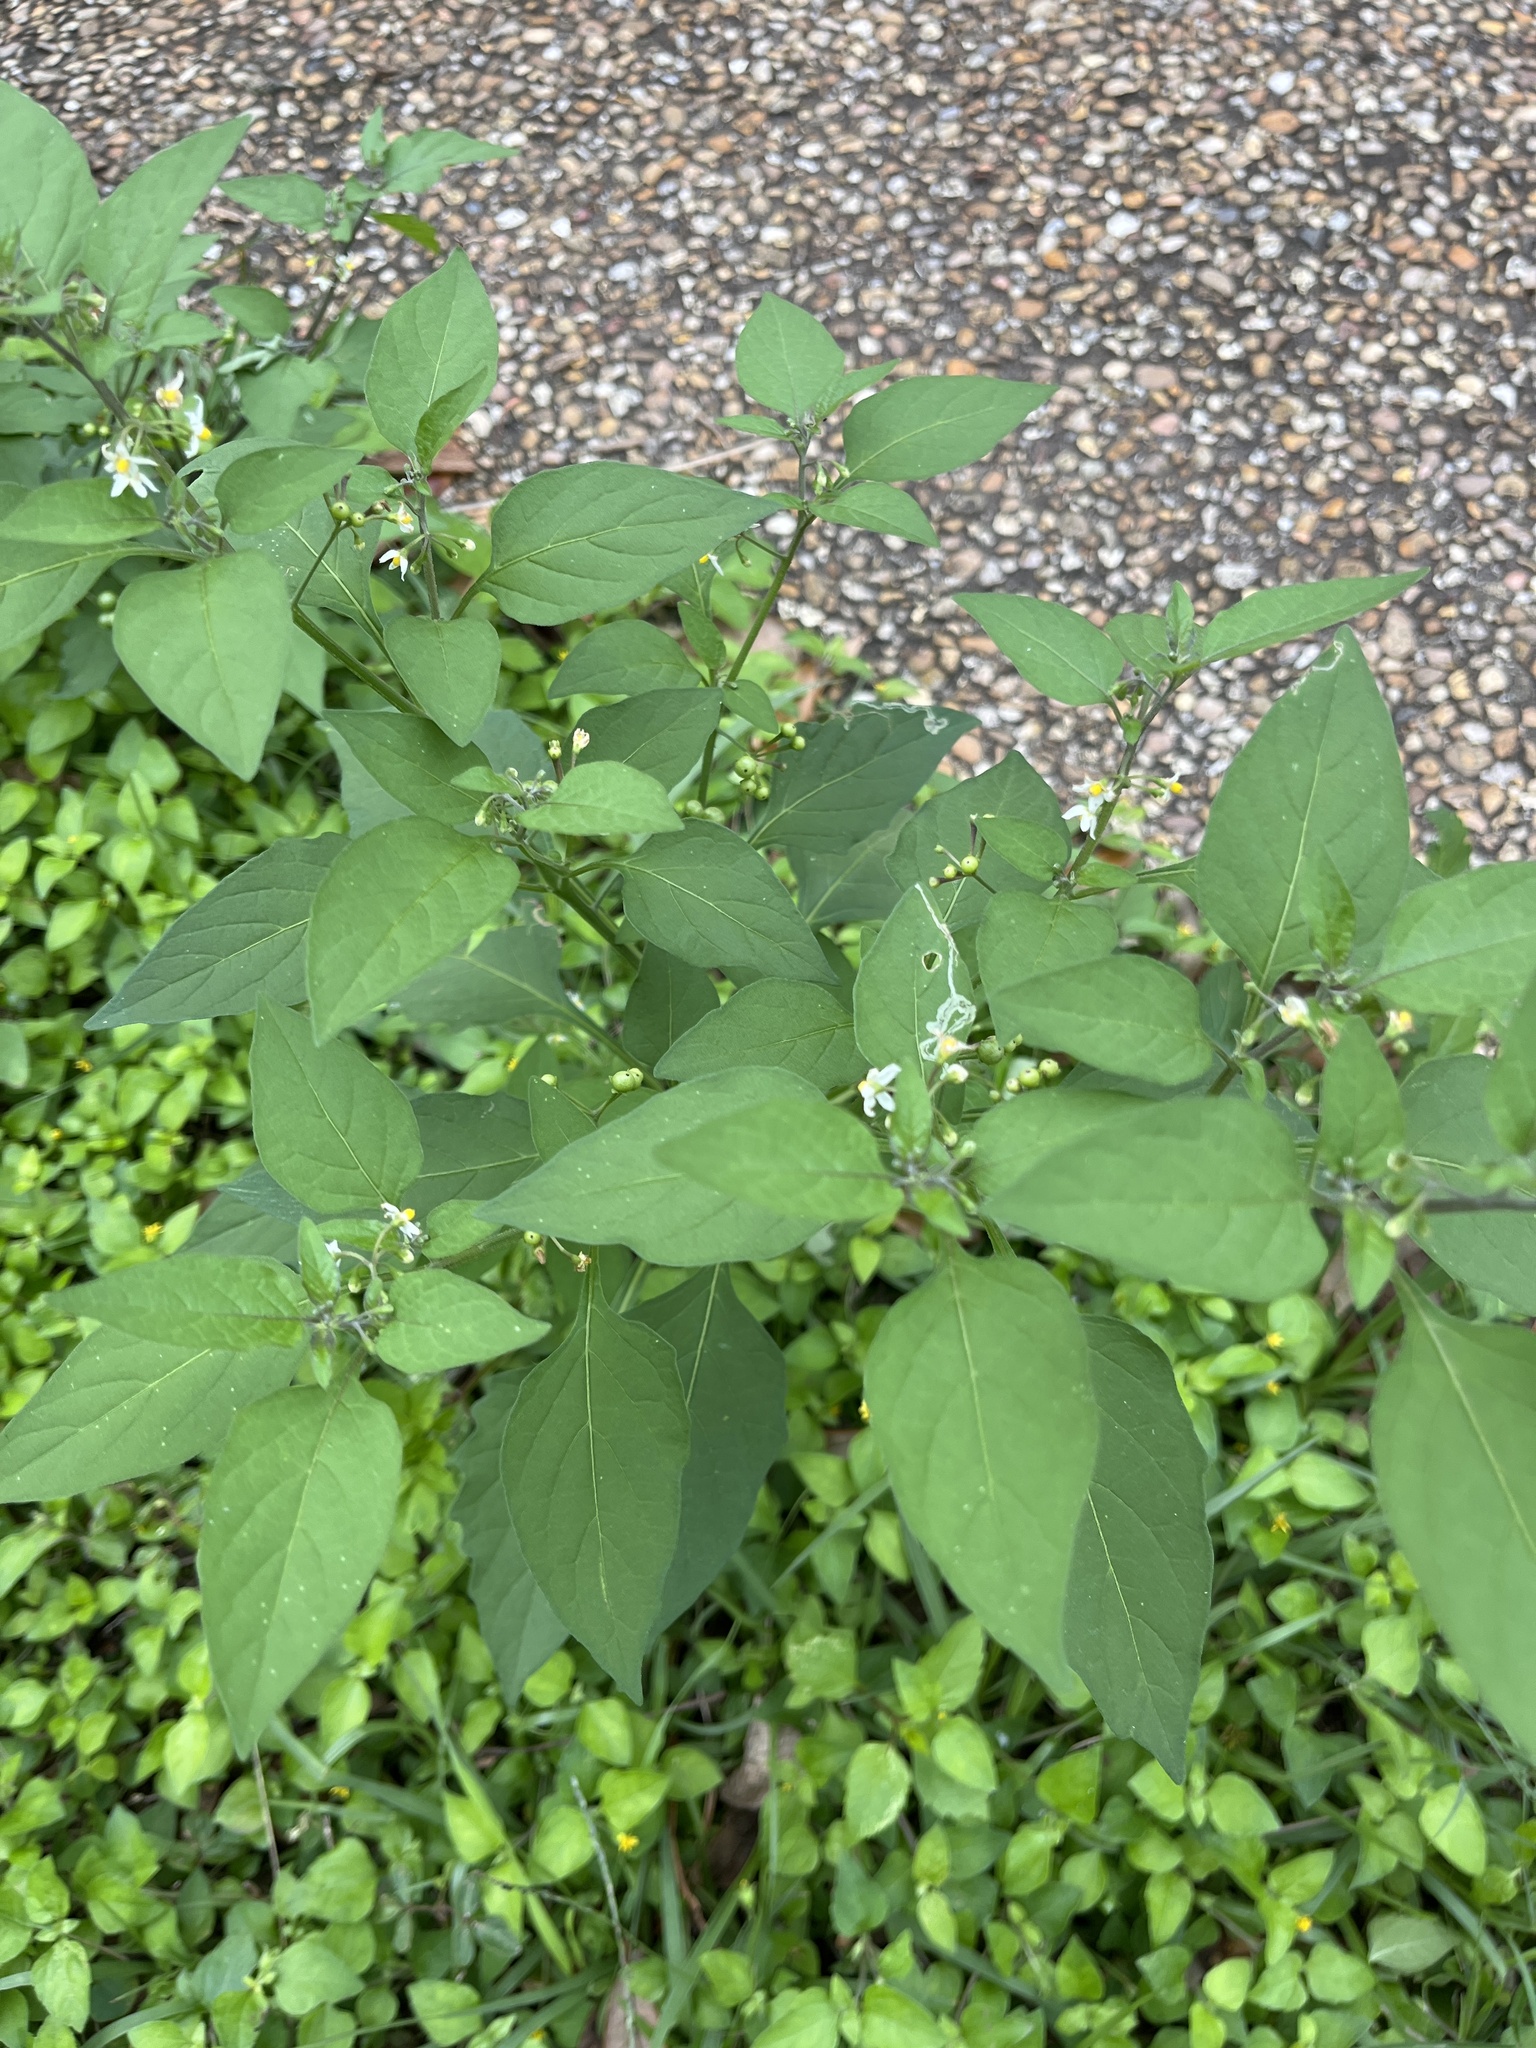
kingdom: Plantae
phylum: Tracheophyta
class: Magnoliopsida
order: Solanales
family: Solanaceae
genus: Solanum
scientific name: Solanum americanum
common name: American black nightshade
